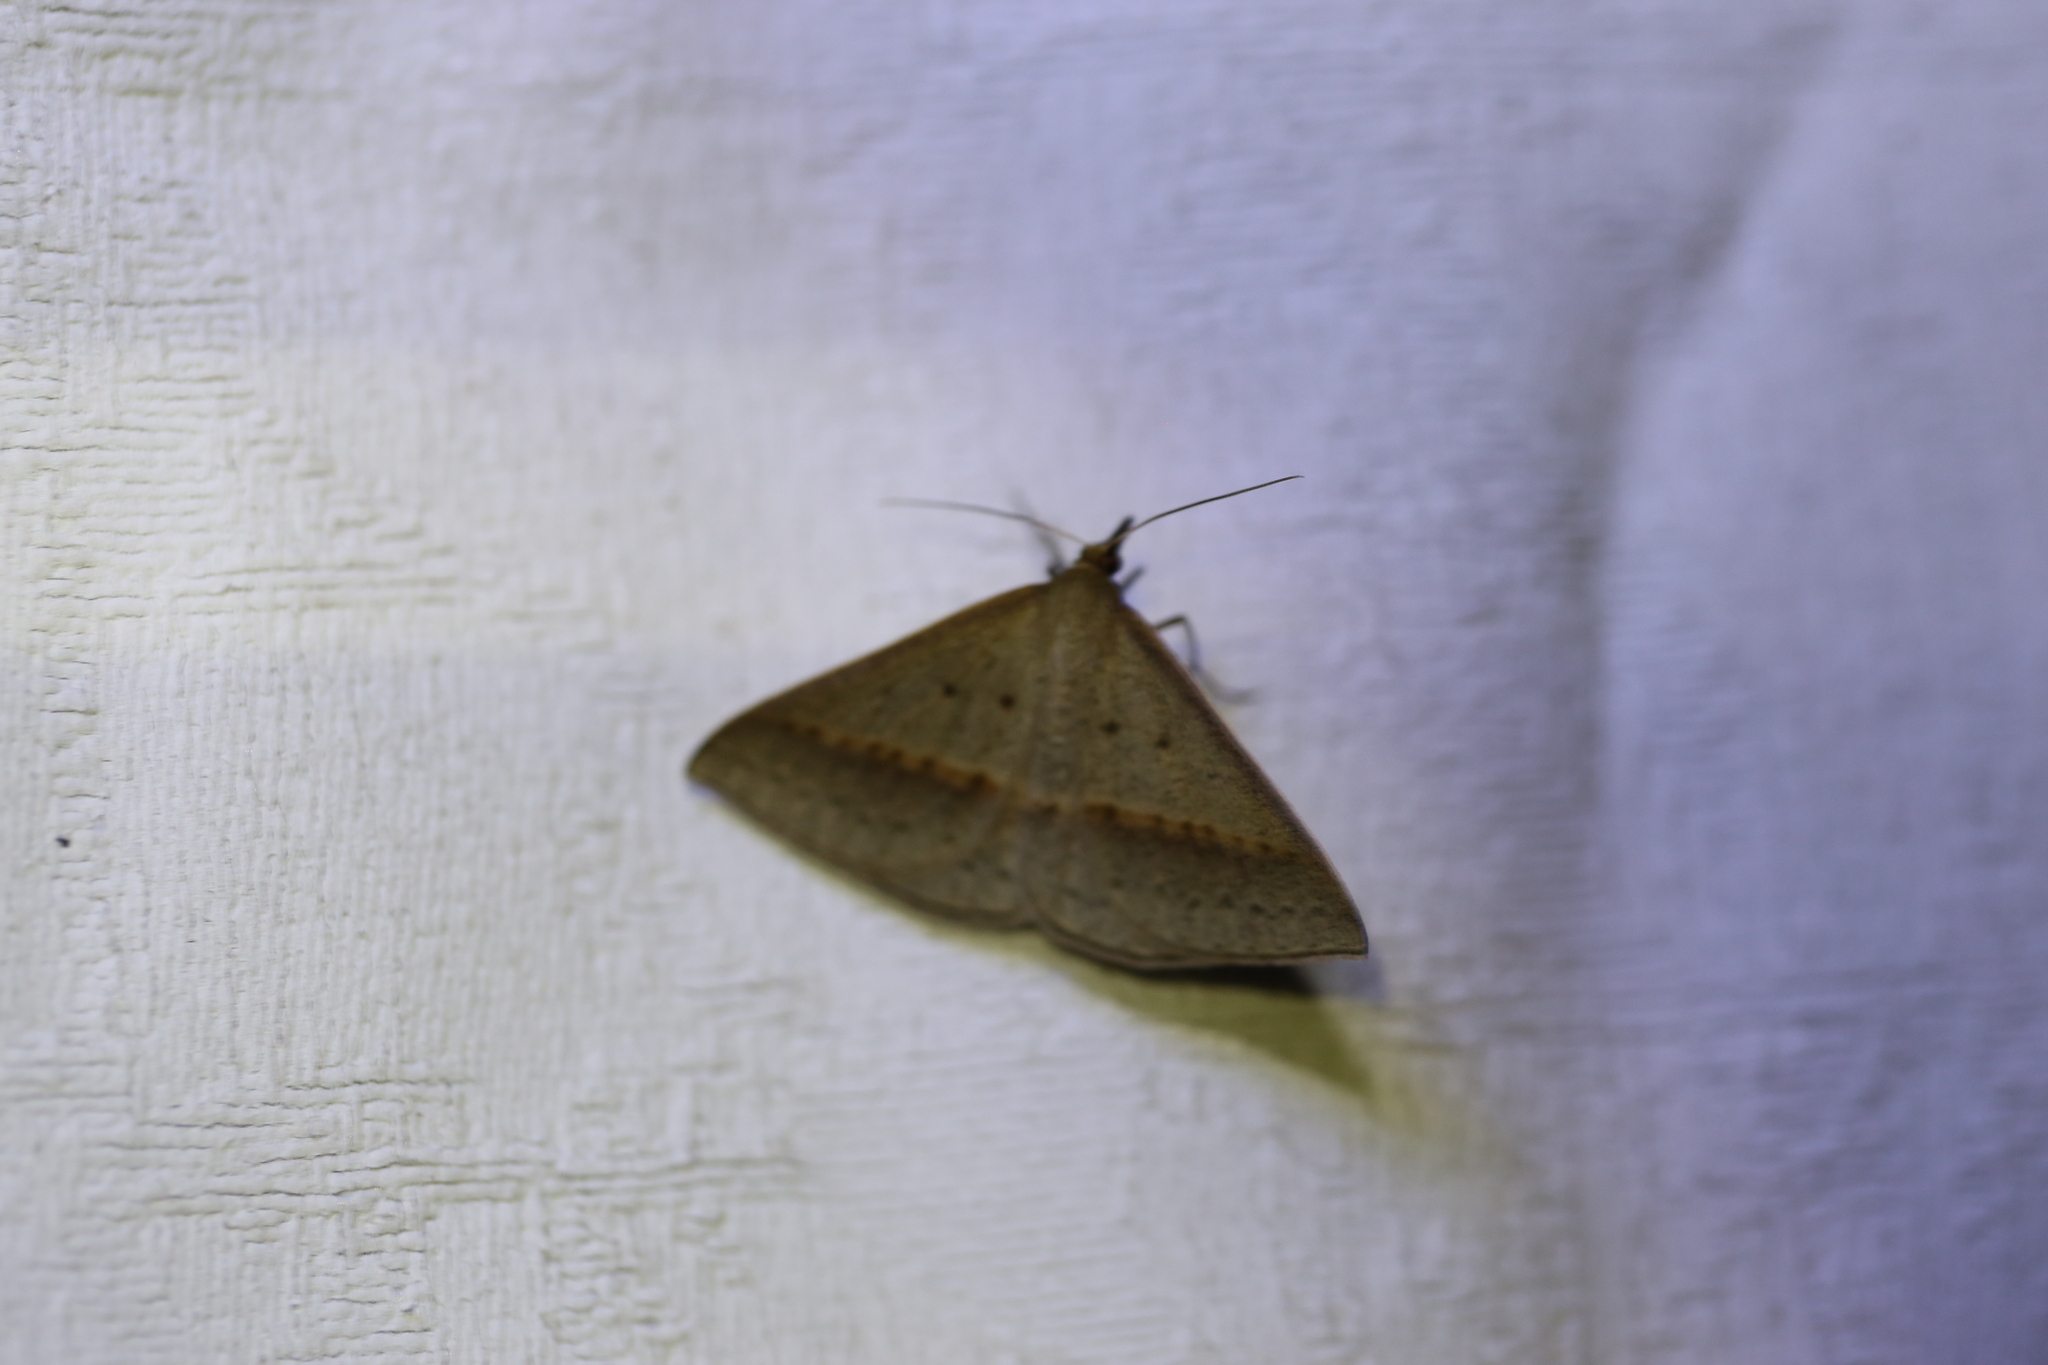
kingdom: Animalia
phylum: Arthropoda
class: Insecta
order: Lepidoptera
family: Geometridae
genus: Epidesmia
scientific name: Epidesmia tryxaria
